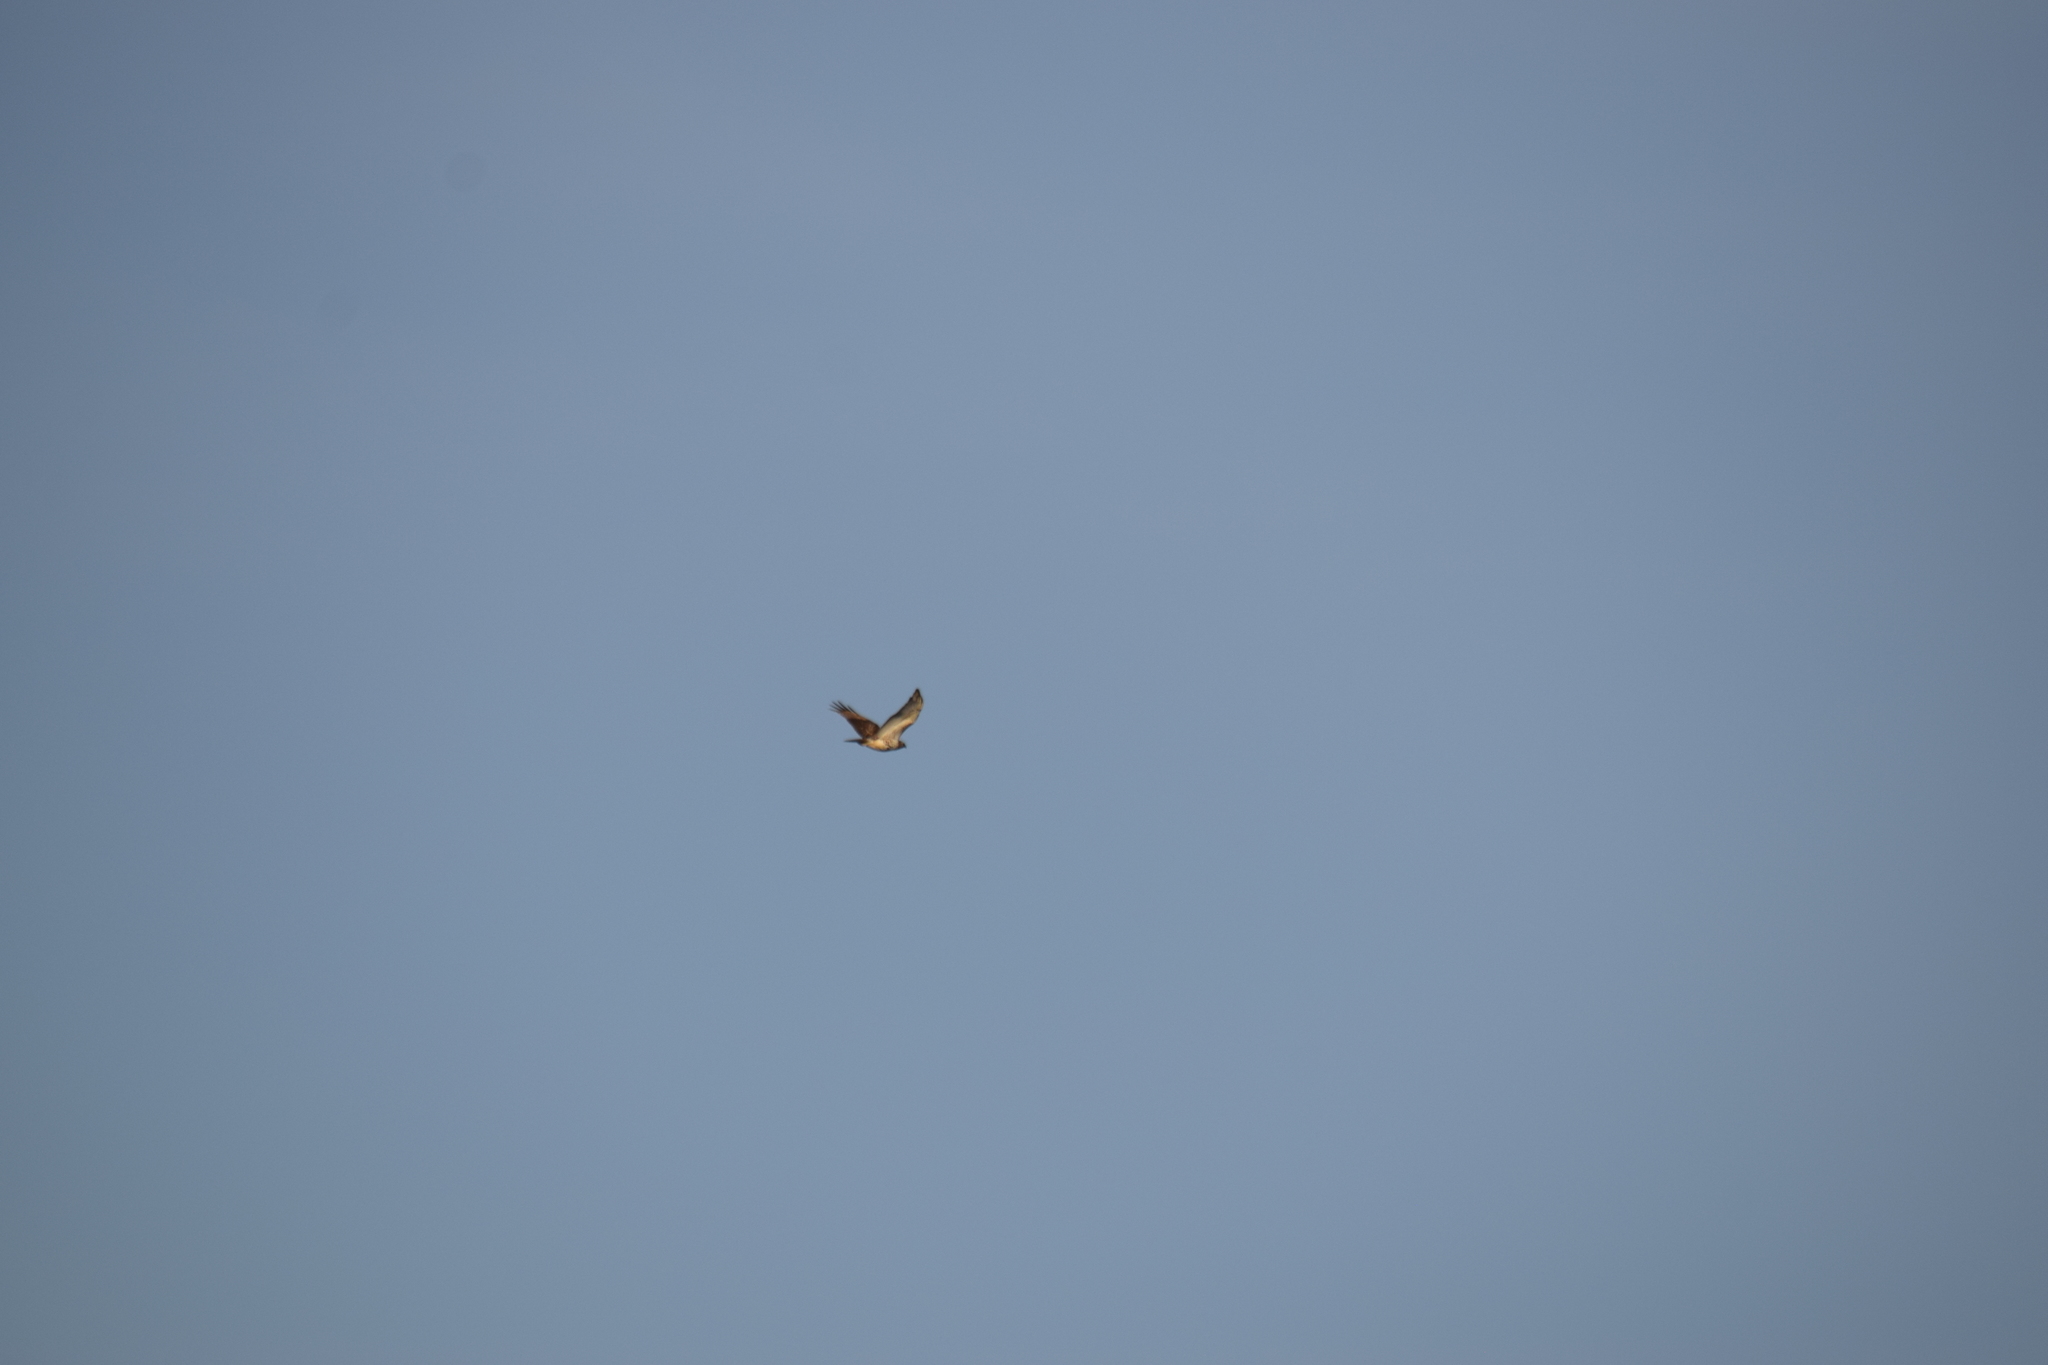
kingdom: Animalia
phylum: Chordata
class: Aves
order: Accipitriformes
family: Accipitridae
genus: Buteo
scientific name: Buteo jamaicensis
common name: Red-tailed hawk
